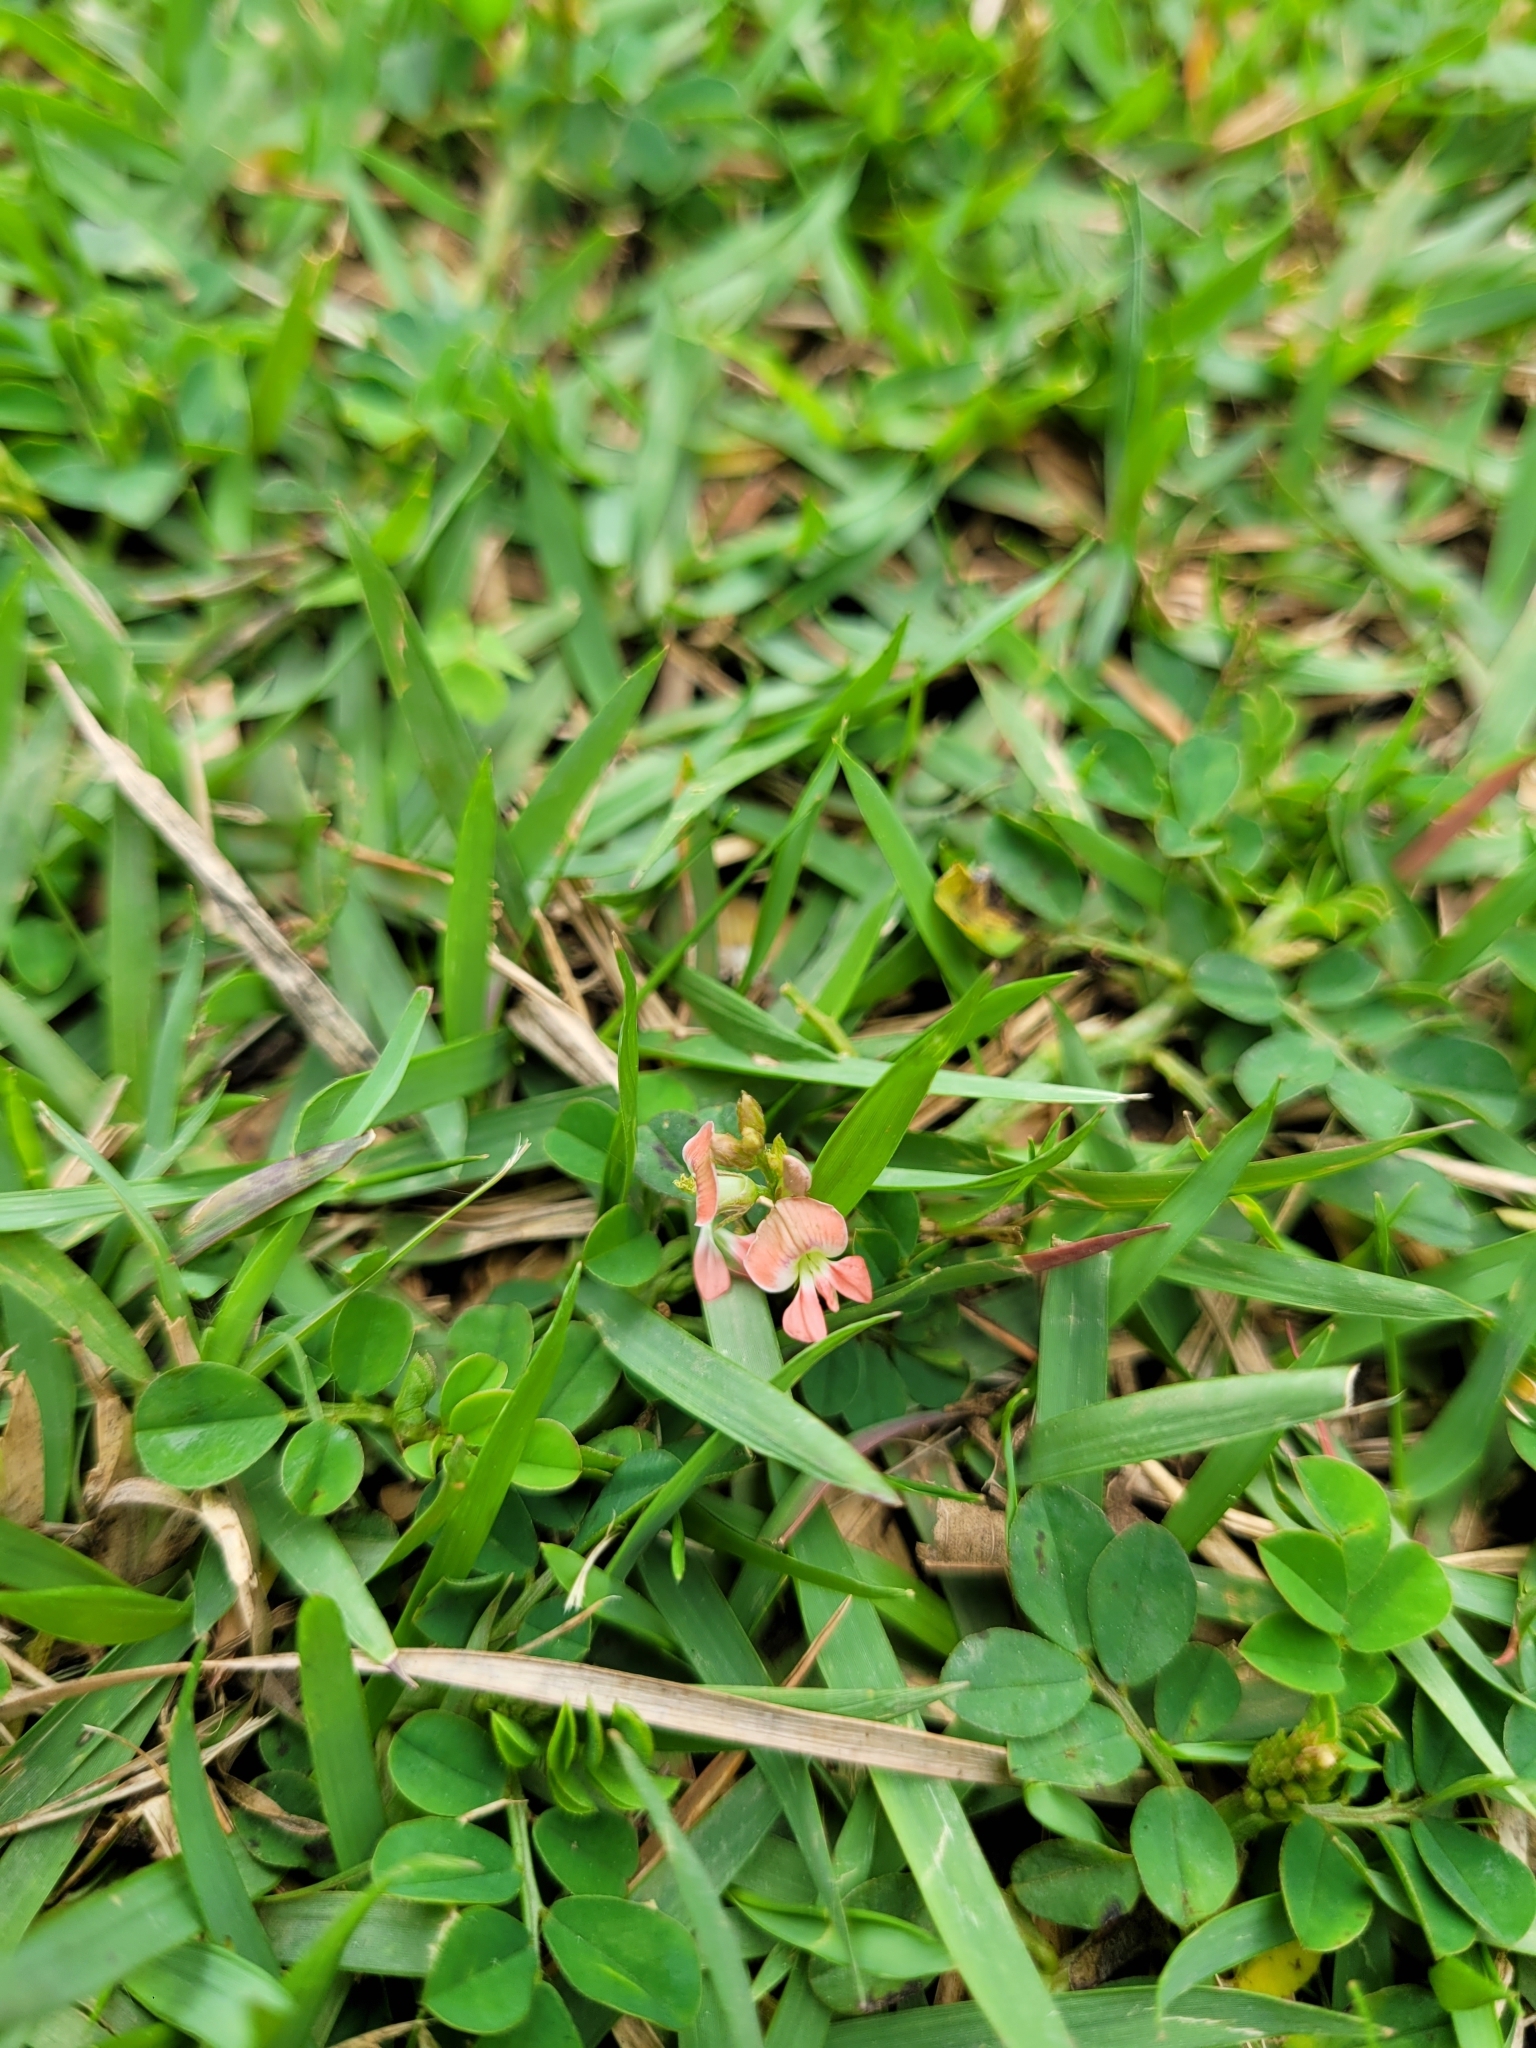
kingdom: Plantae
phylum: Tracheophyta
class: Magnoliopsida
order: Fabales
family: Fabaceae
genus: Indigofera
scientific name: Indigofera spicata
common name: Creeping indigo
